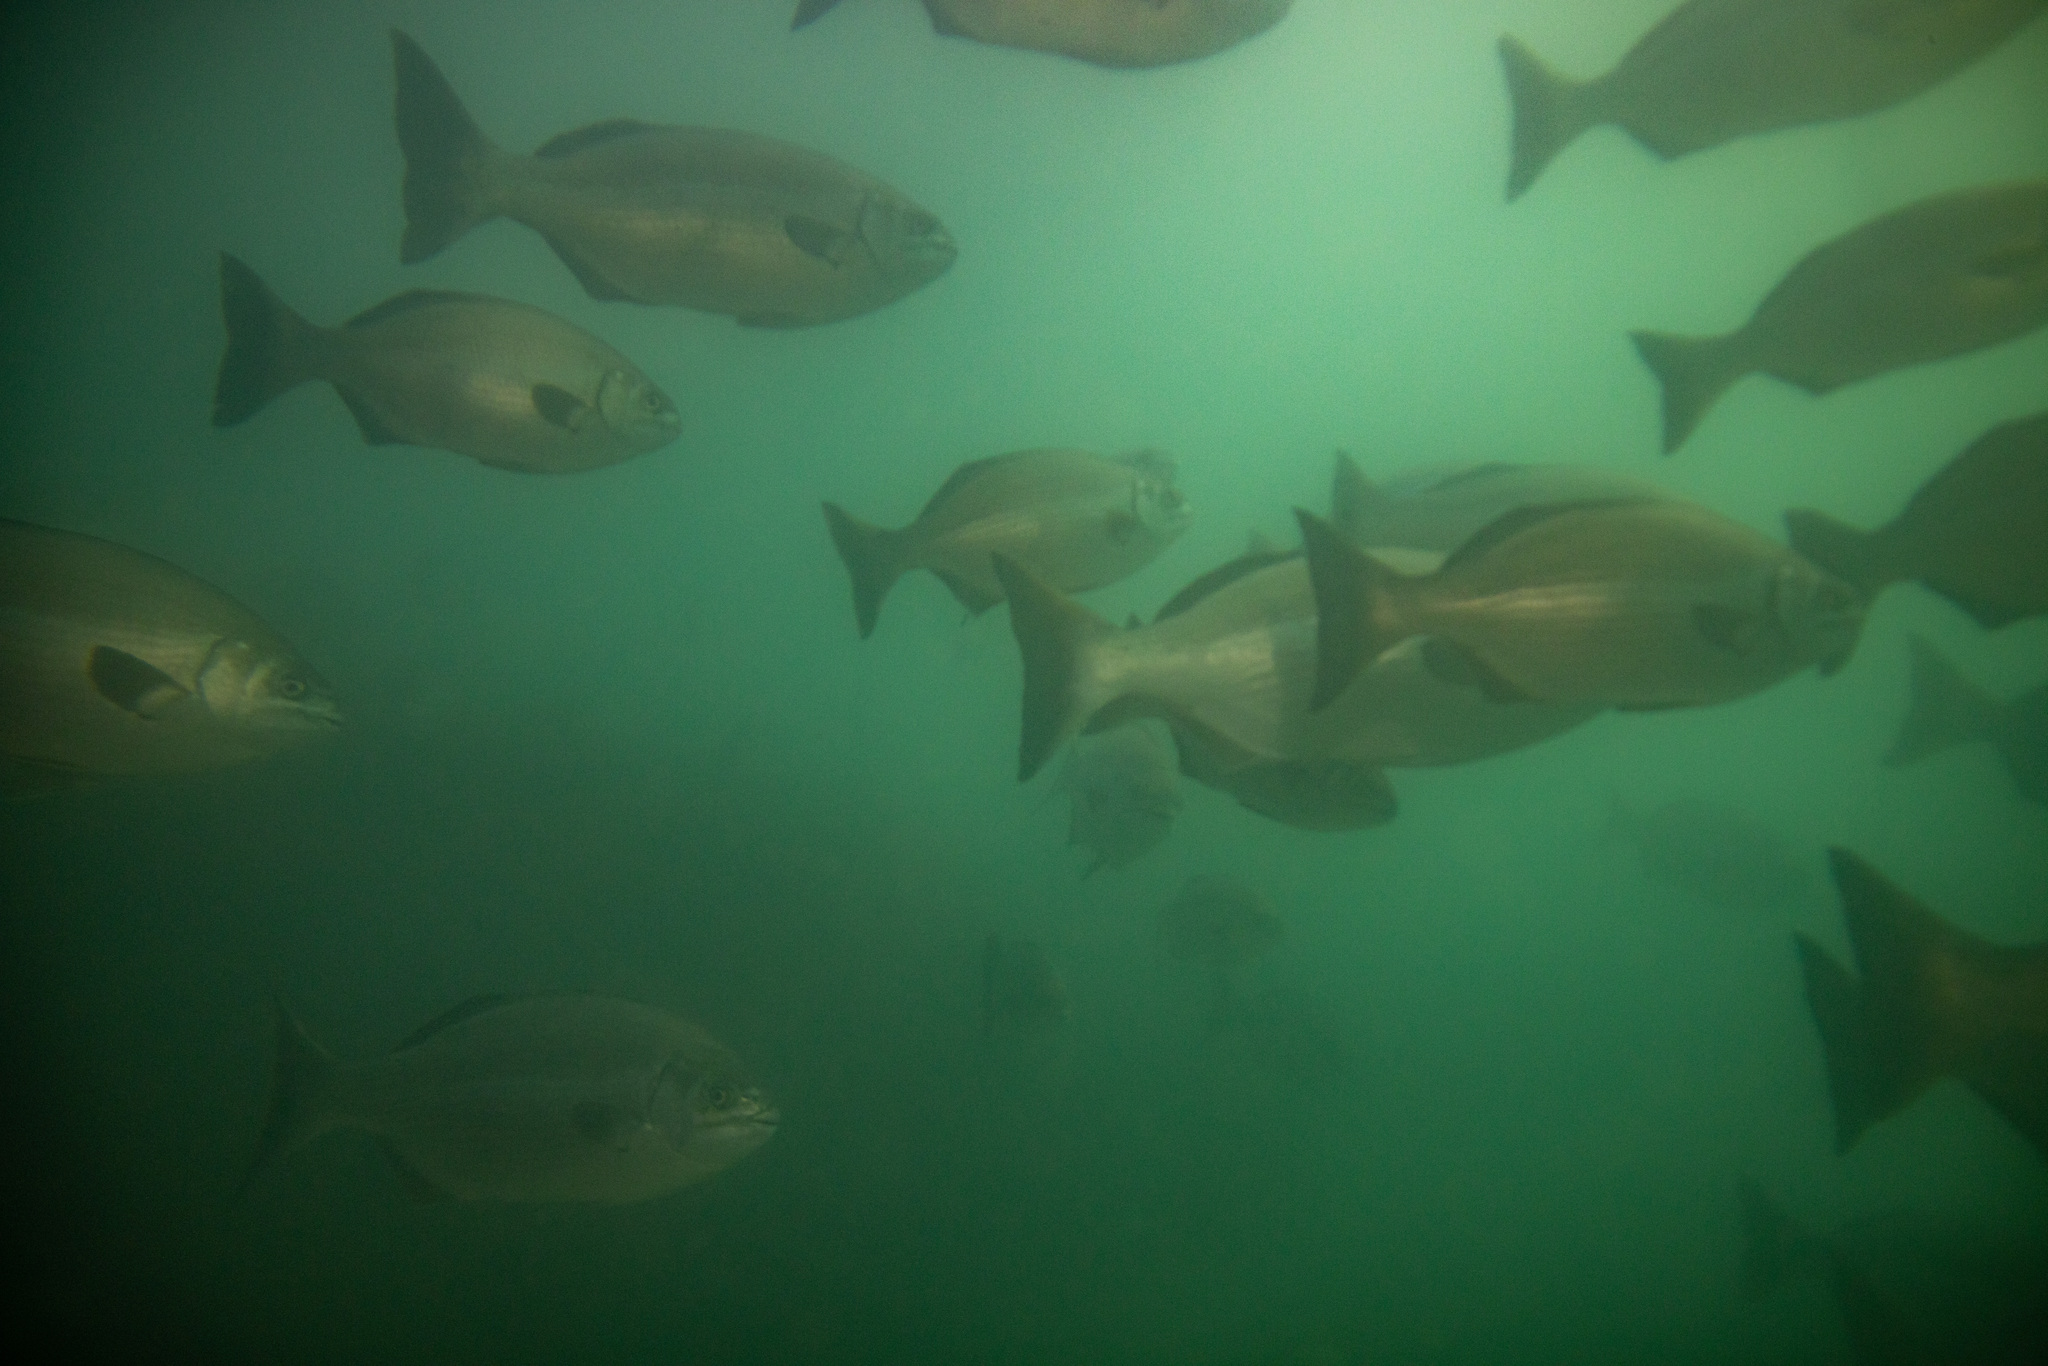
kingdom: Animalia
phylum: Chordata
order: Perciformes
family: Kyphosidae
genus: Kyphosus
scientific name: Kyphosus sydneyanus
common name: Silver drummer
